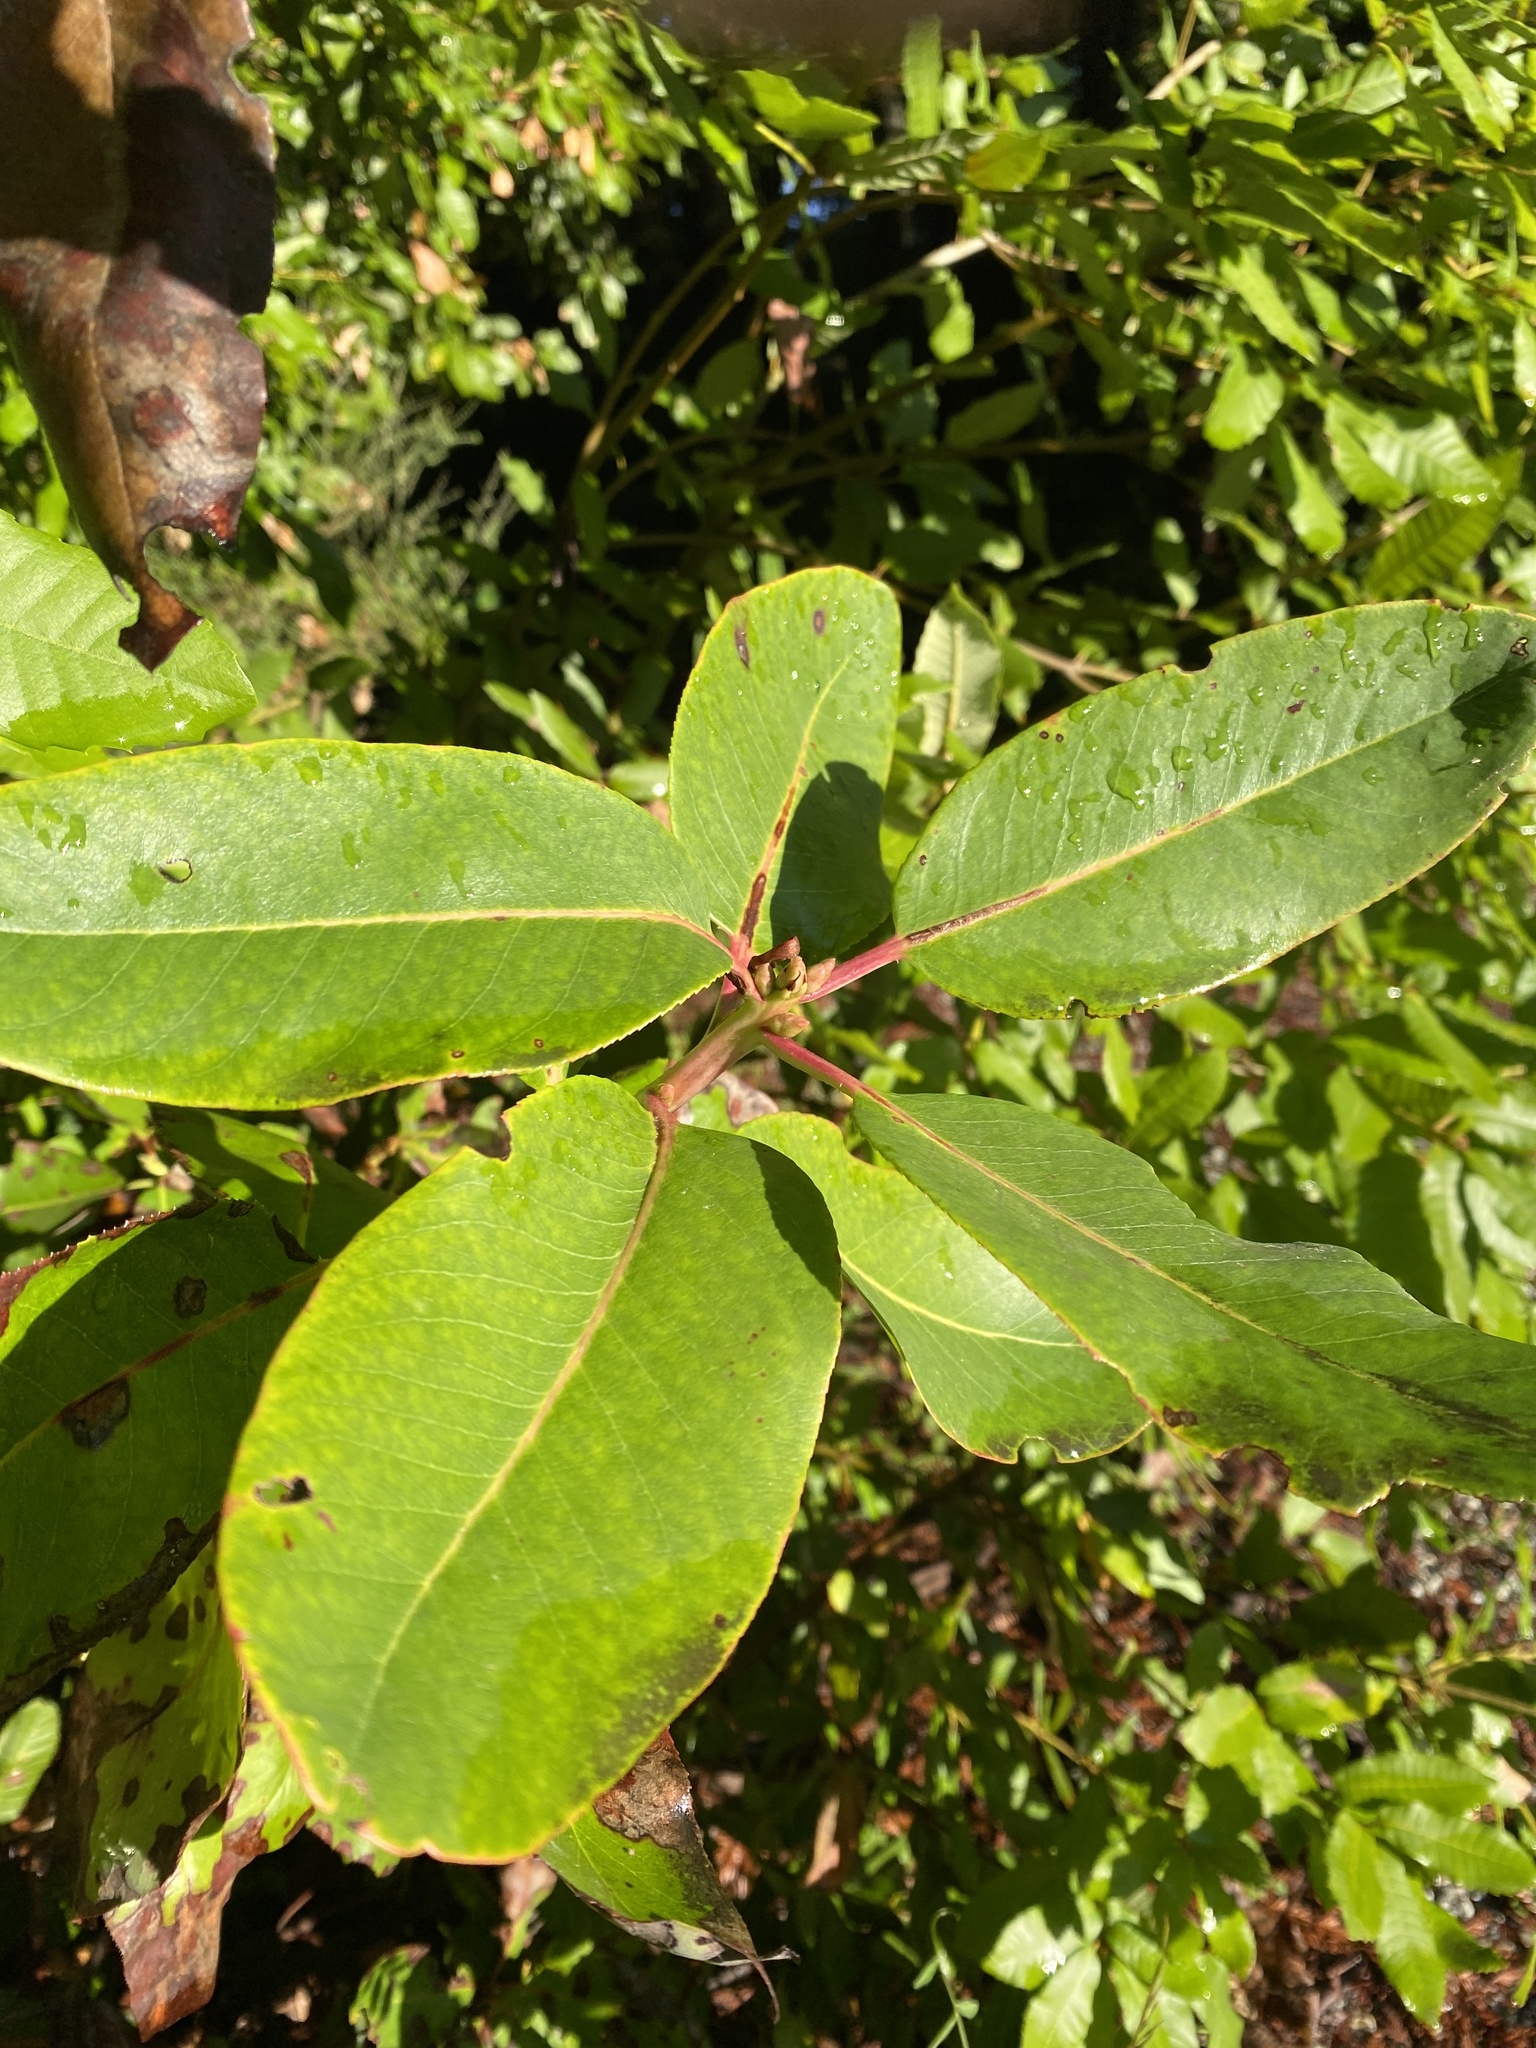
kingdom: Plantae
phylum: Tracheophyta
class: Magnoliopsida
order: Ericales
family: Ericaceae
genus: Arbutus
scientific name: Arbutus menziesii
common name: Pacific madrone
